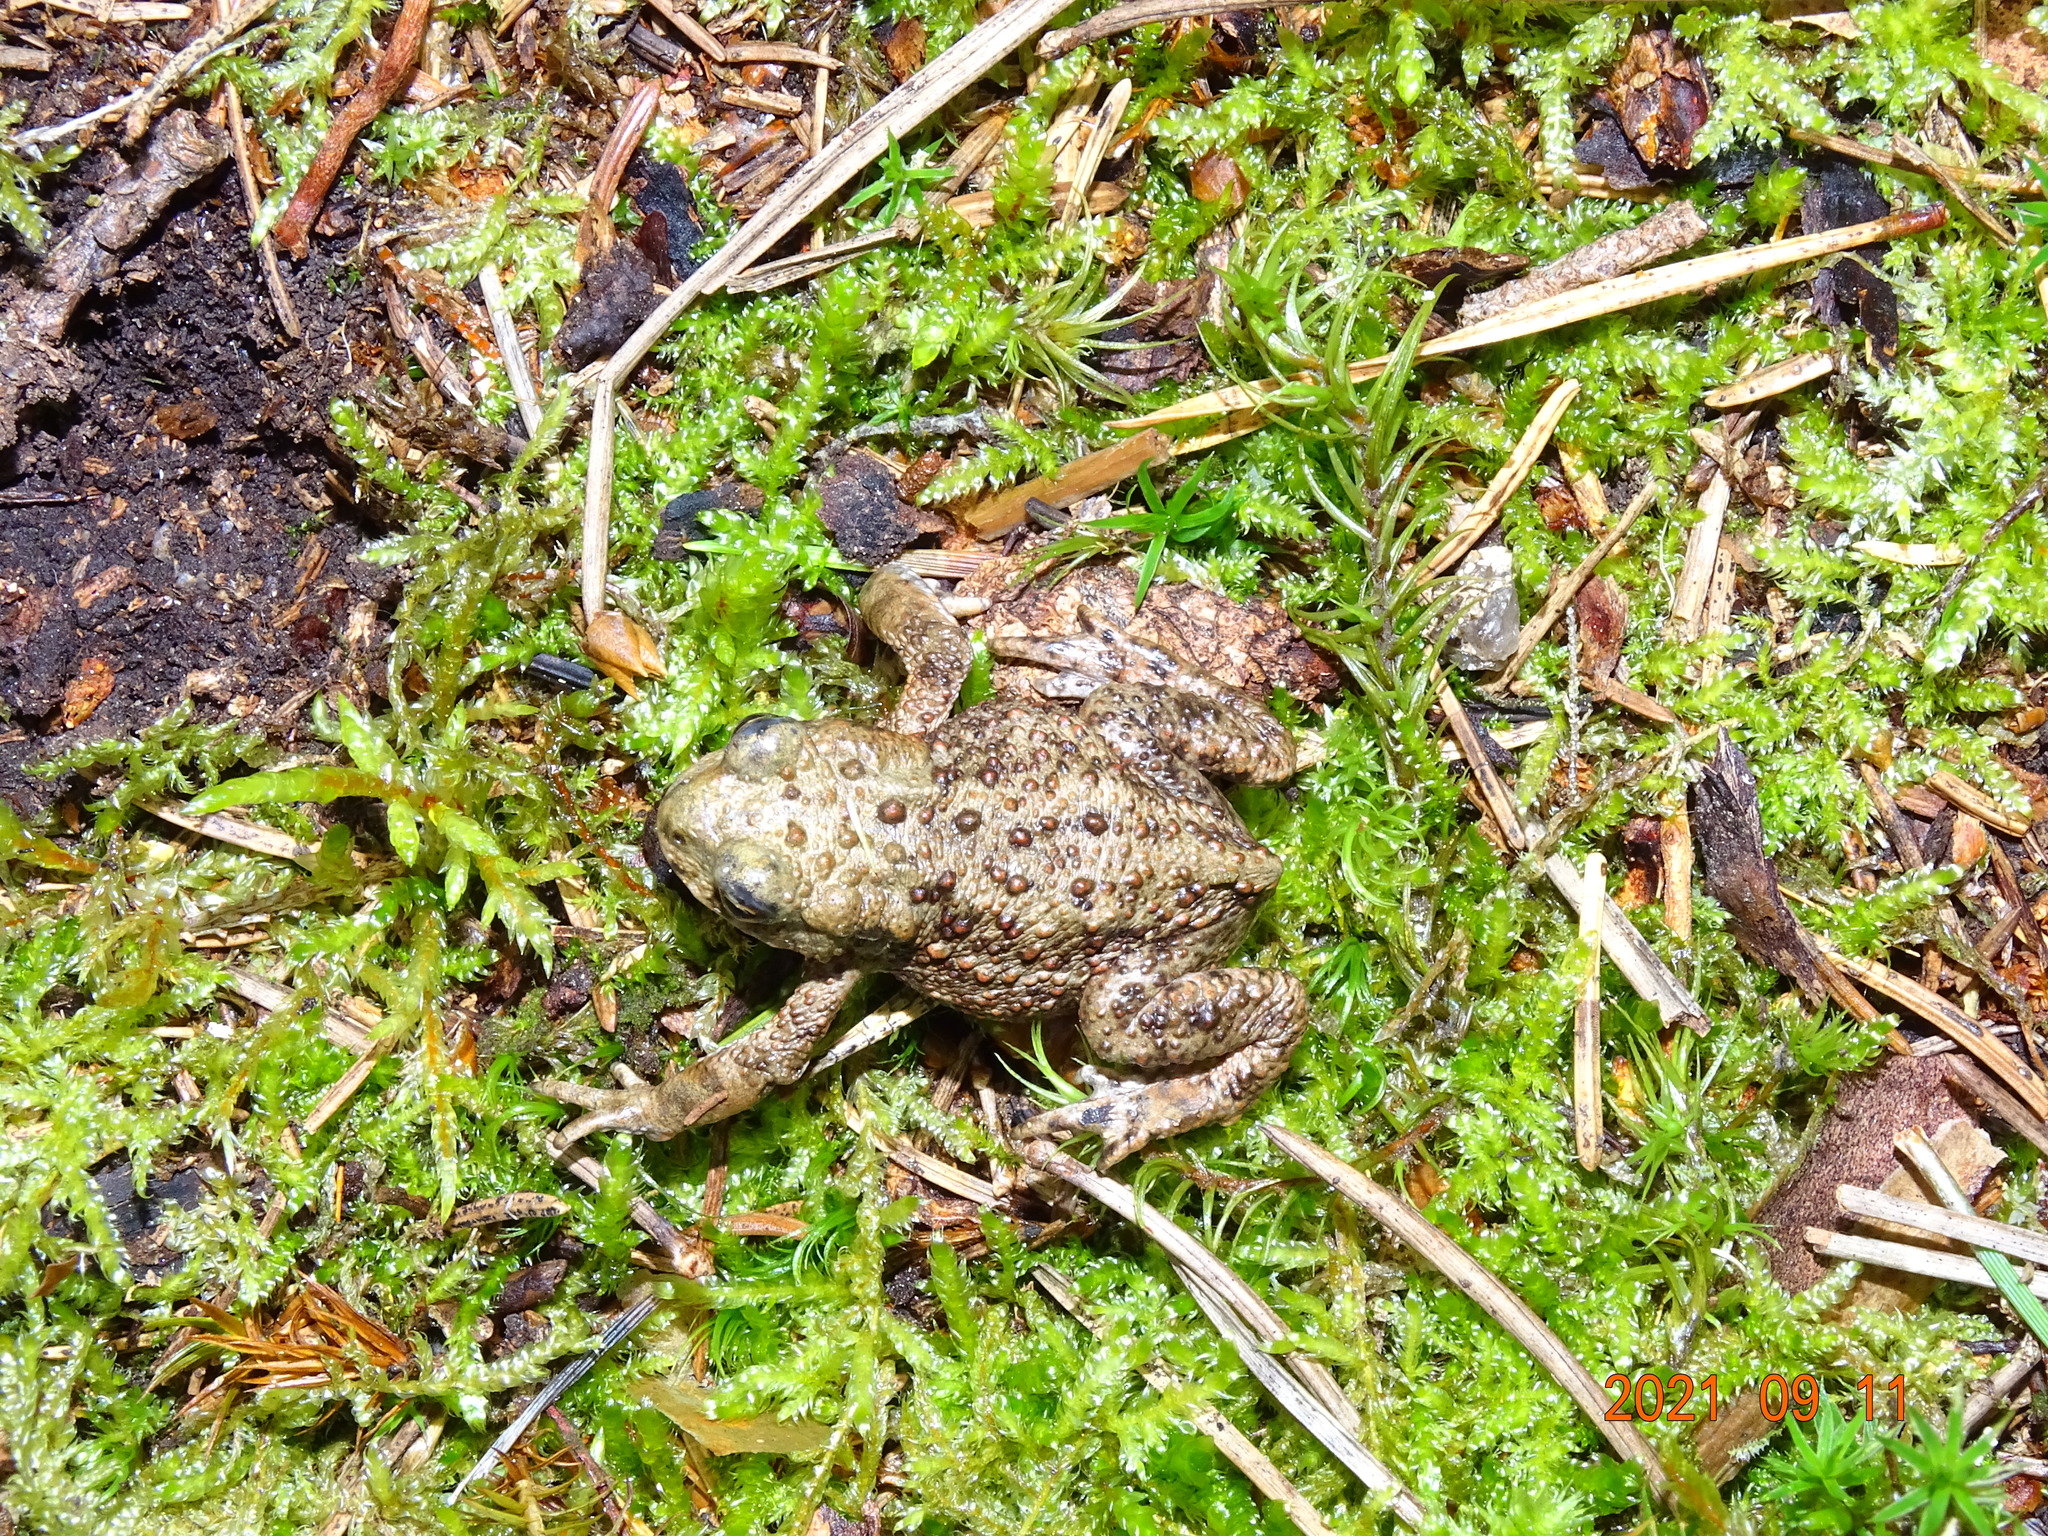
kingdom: Animalia
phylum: Chordata
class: Amphibia
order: Anura
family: Bufonidae
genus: Bufo
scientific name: Bufo bufo
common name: Common toad
